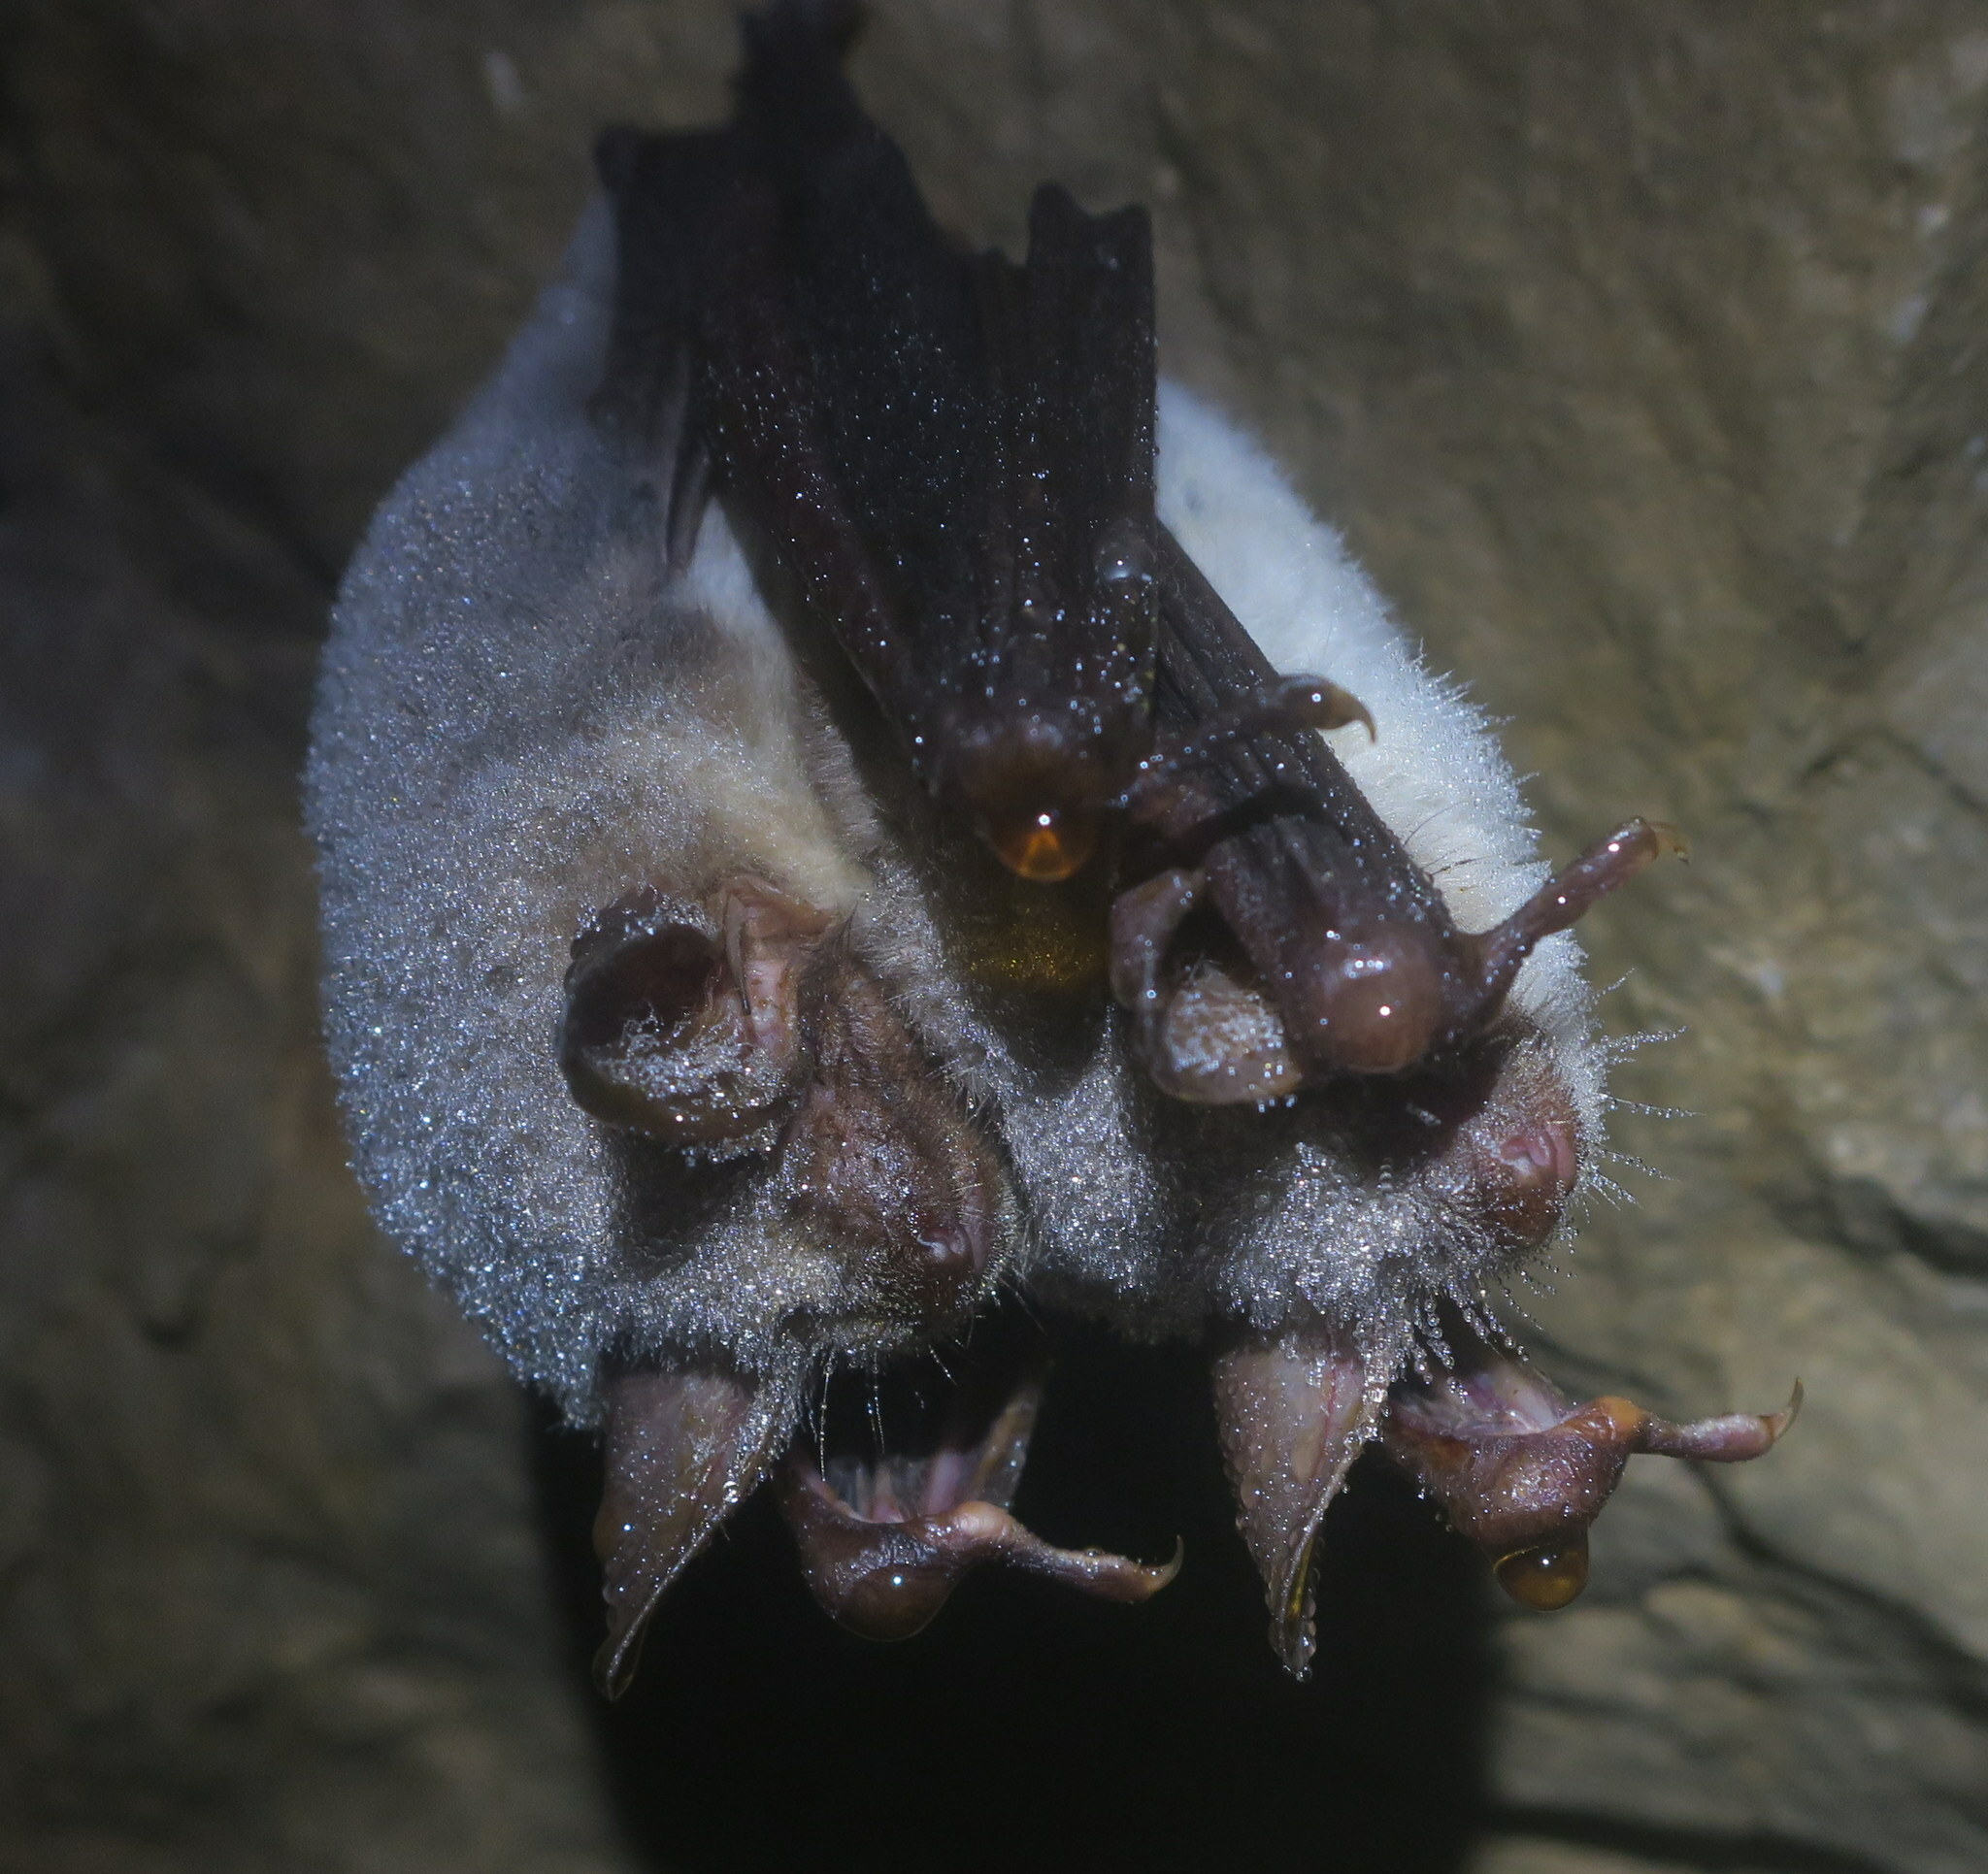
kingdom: Animalia
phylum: Chordata
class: Mammalia
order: Chiroptera
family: Vespertilionidae
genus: Myotis
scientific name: Myotis myotis
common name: Greater mouse-eared bat
